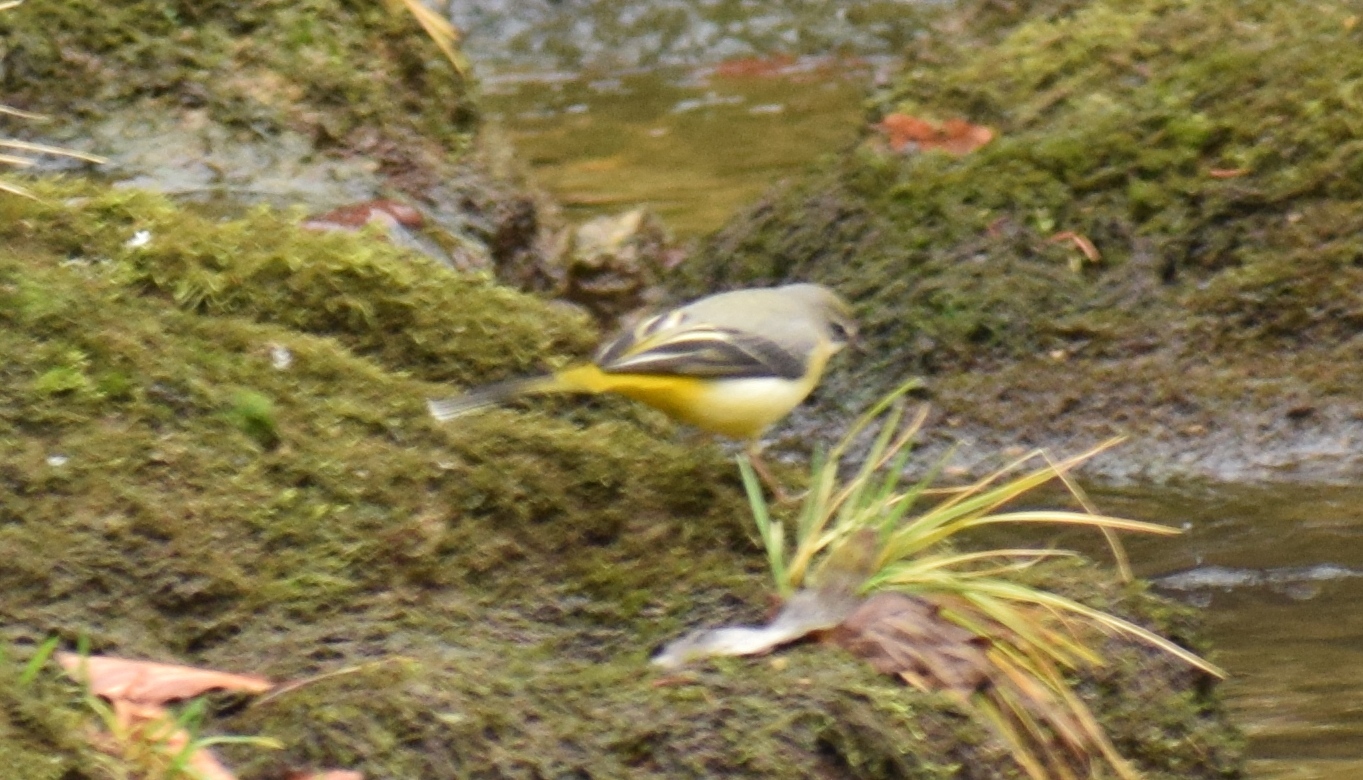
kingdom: Animalia
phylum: Chordata
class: Aves
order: Passeriformes
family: Motacillidae
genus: Motacilla
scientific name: Motacilla cinerea
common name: Grey wagtail
